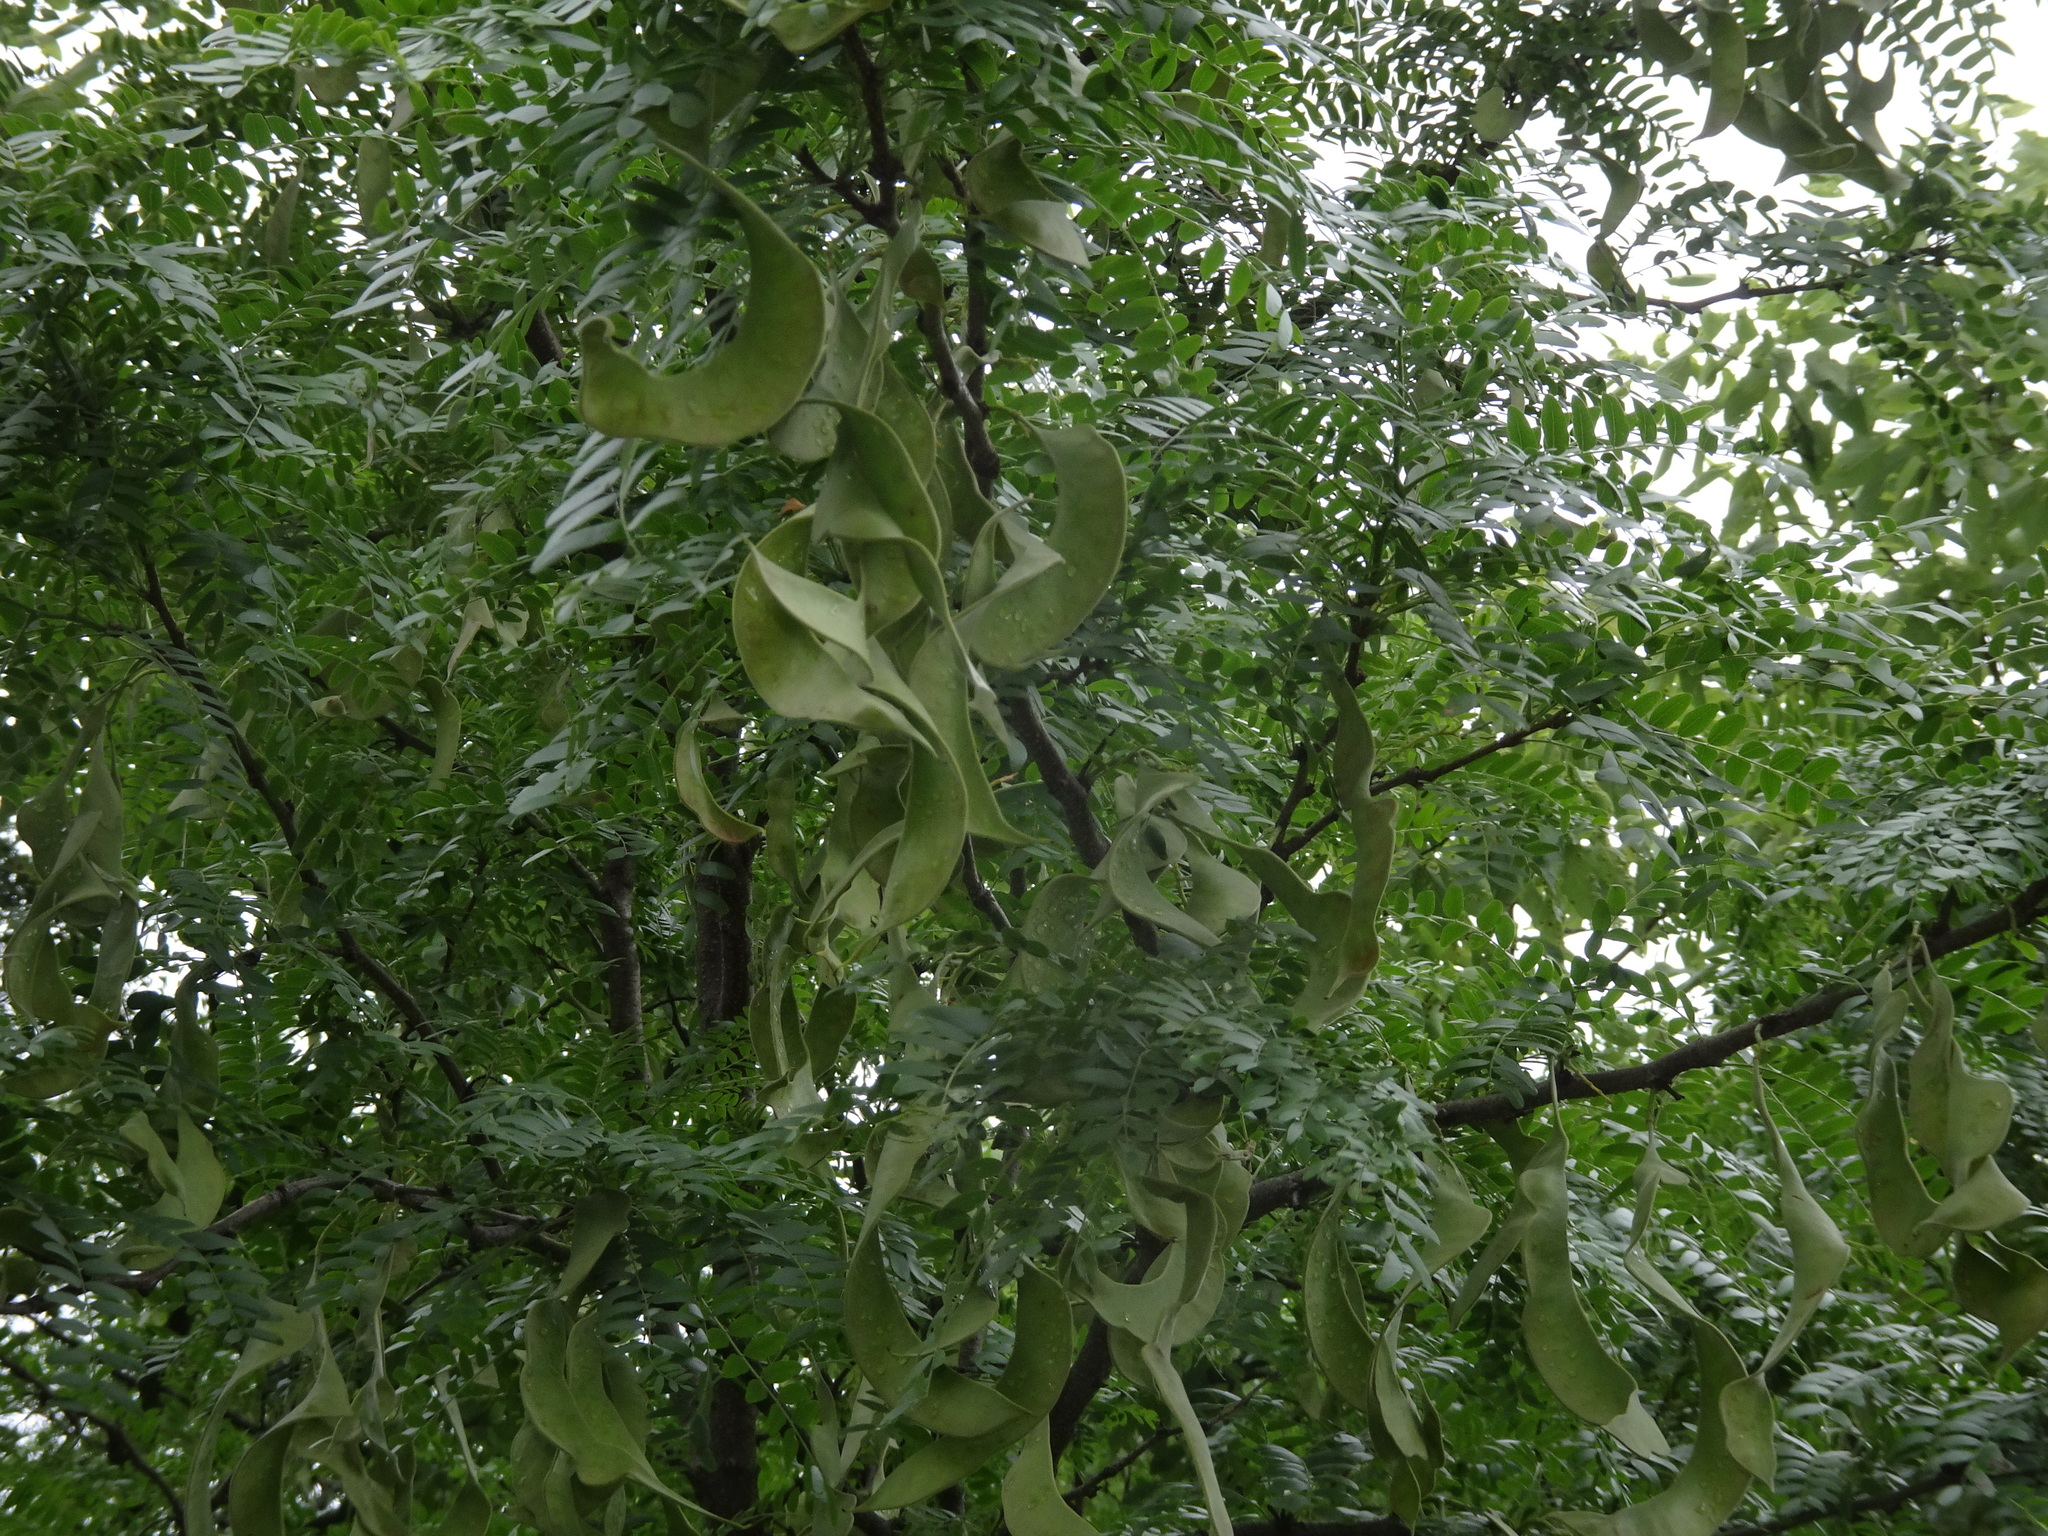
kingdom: Plantae
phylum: Tracheophyta
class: Magnoliopsida
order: Fabales
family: Fabaceae
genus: Gleditsia
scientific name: Gleditsia triacanthos
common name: Common honeylocust
